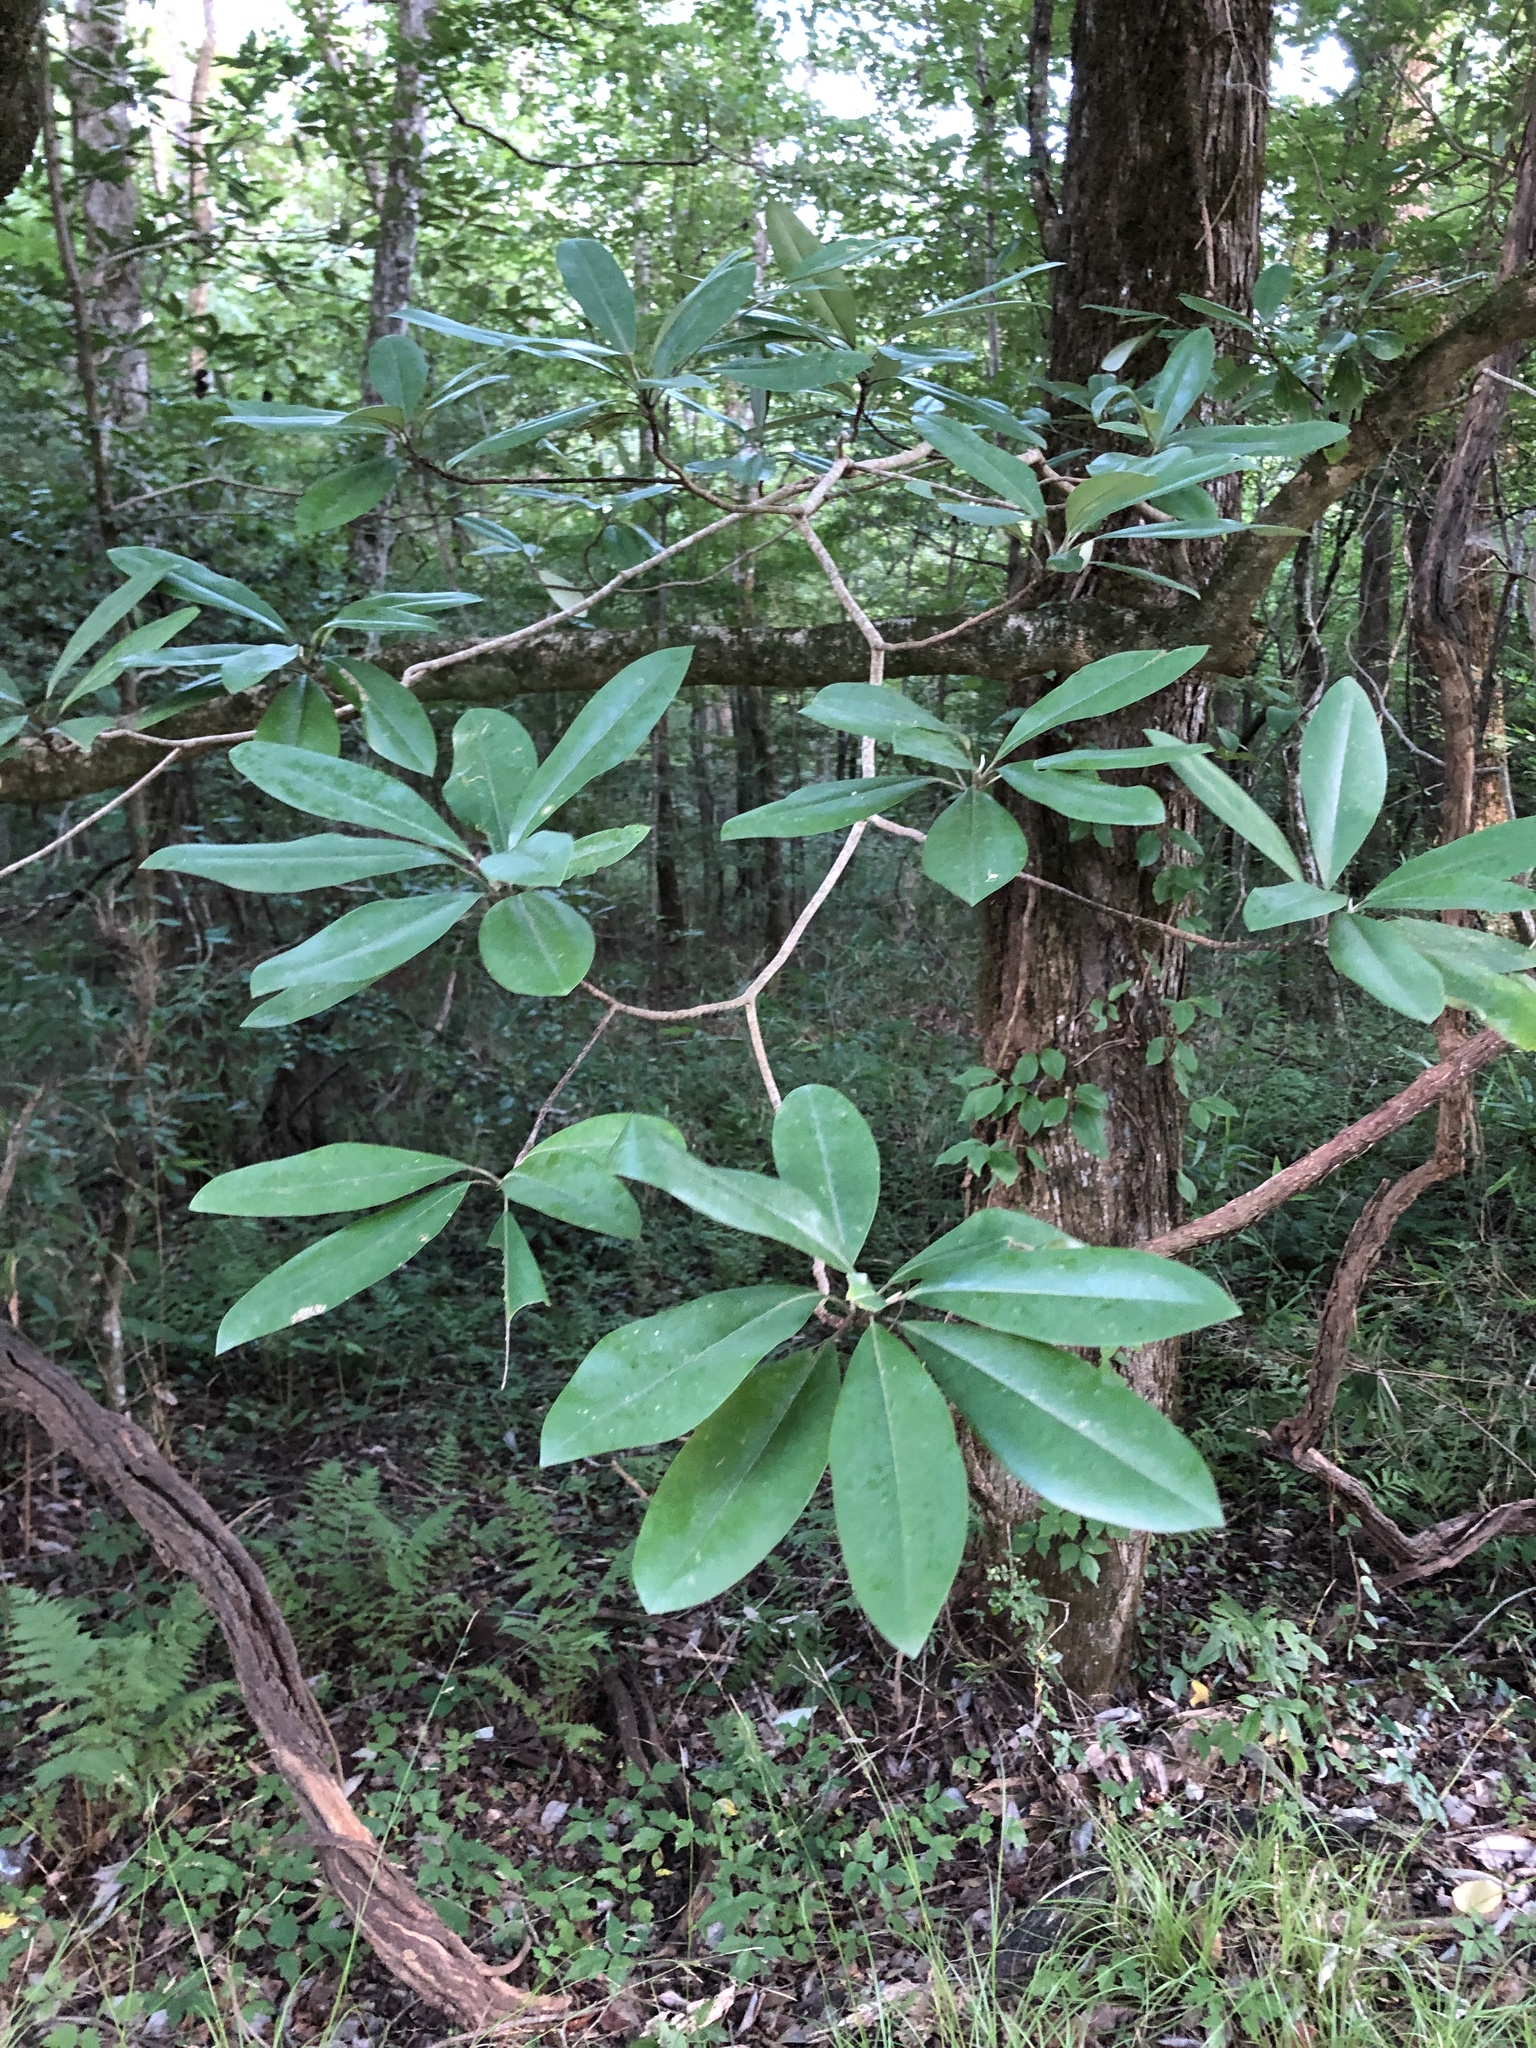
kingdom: Plantae
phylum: Tracheophyta
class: Magnoliopsida
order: Magnoliales
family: Magnoliaceae
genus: Magnolia
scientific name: Magnolia virginiana
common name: Swamp bay
